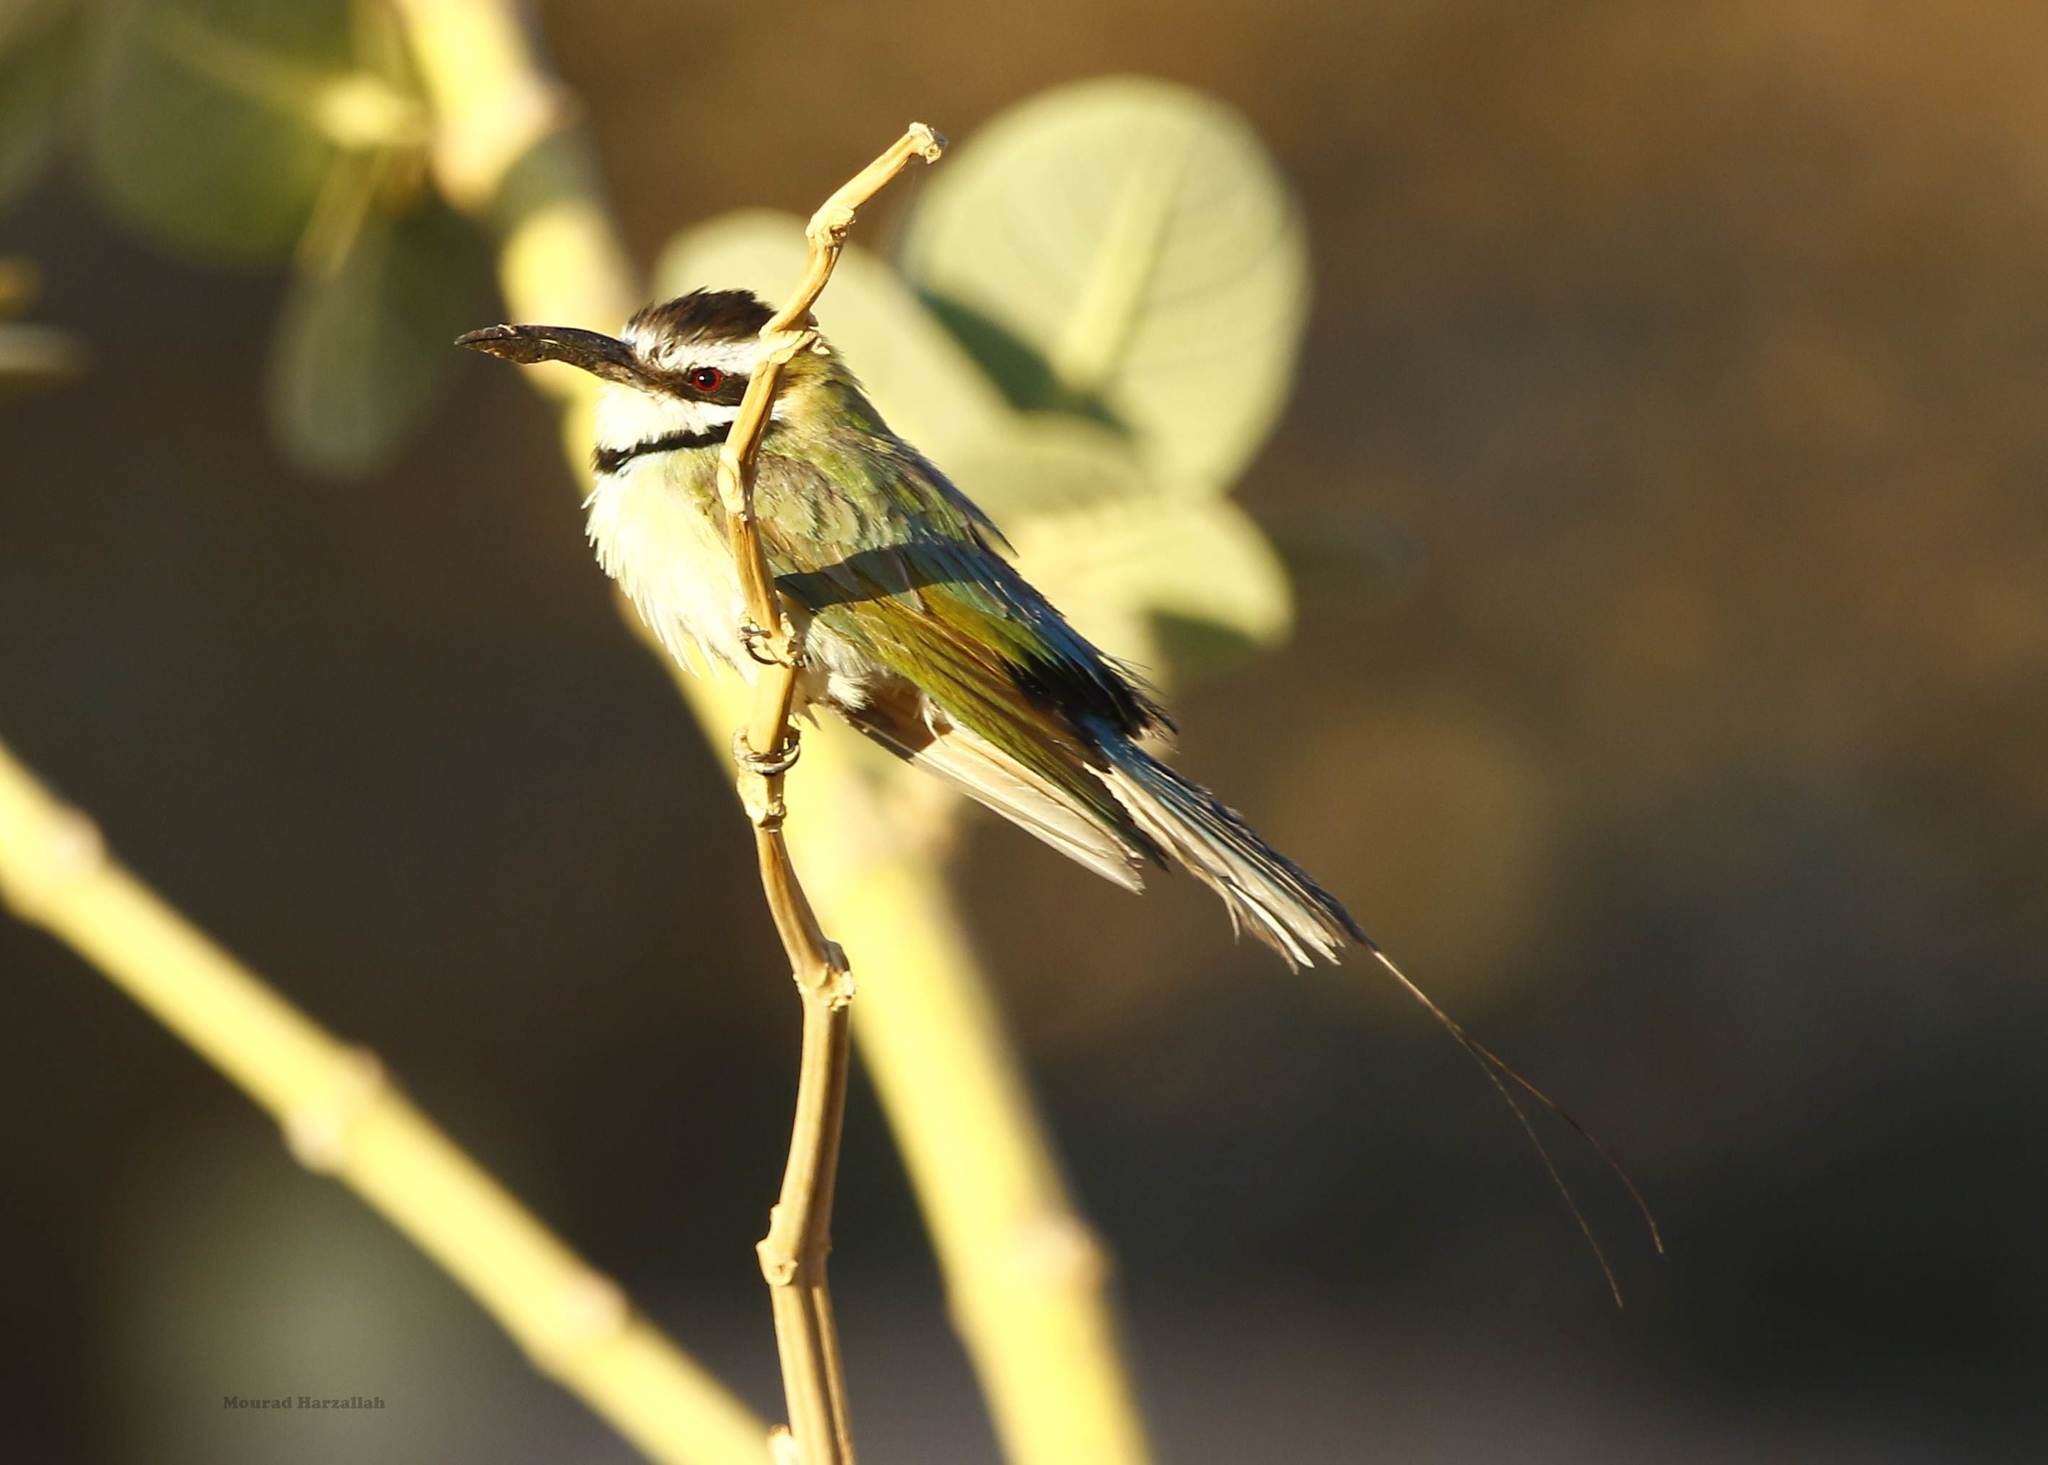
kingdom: Animalia
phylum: Chordata
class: Aves
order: Coraciiformes
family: Meropidae
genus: Merops
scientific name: Merops albicollis
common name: White-throated bee-eater
